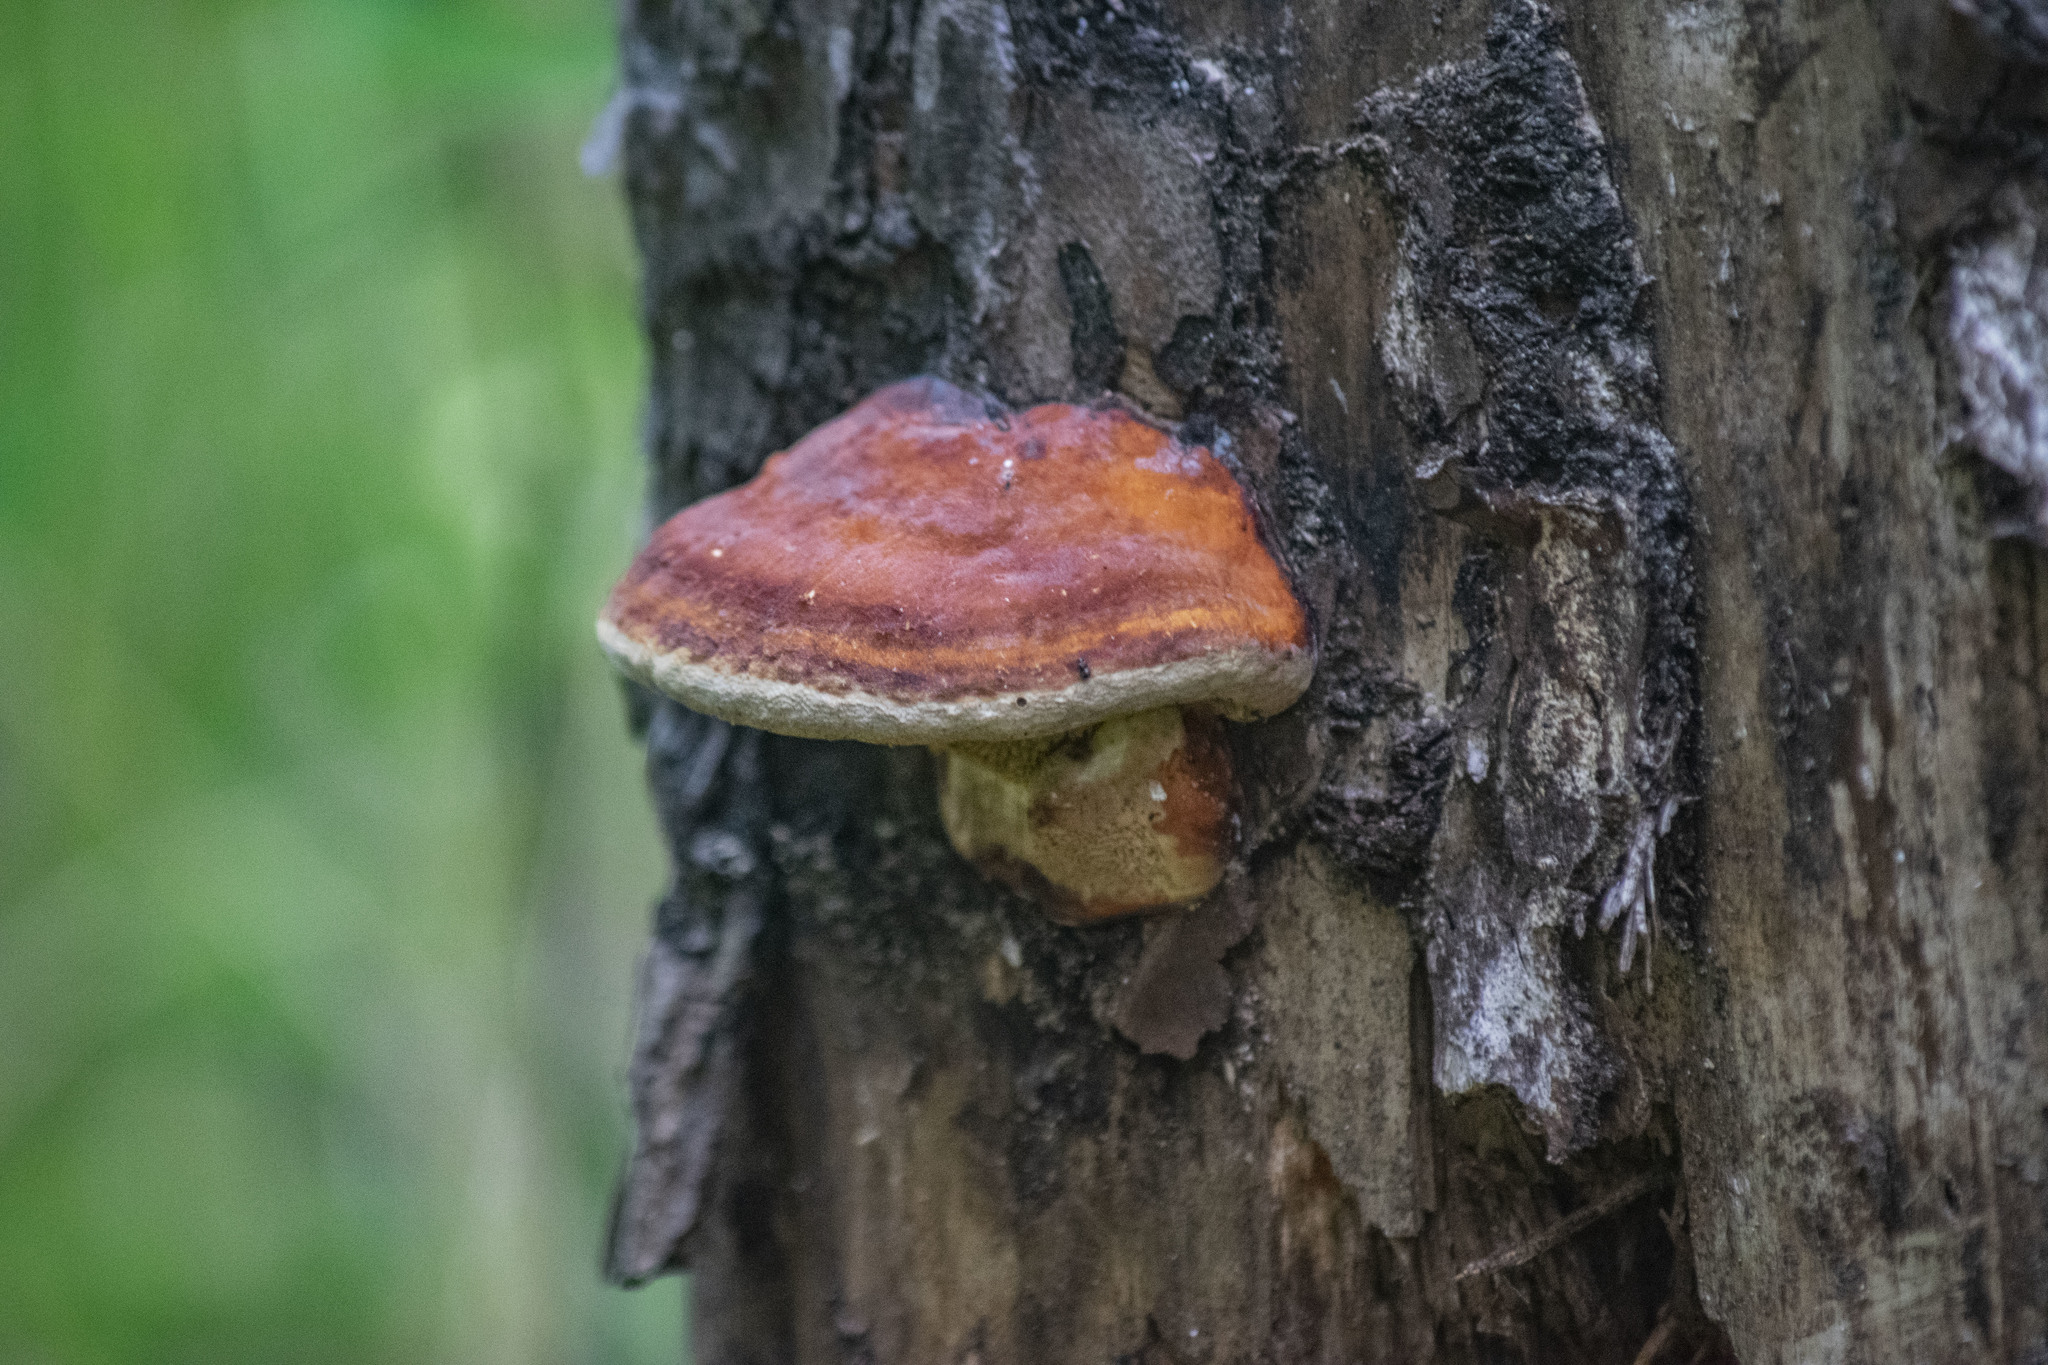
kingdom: Fungi
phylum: Basidiomycota
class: Agaricomycetes
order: Polyporales
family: Fomitopsidaceae
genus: Fomitopsis
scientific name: Fomitopsis pinicola
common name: Red-belted bracket
